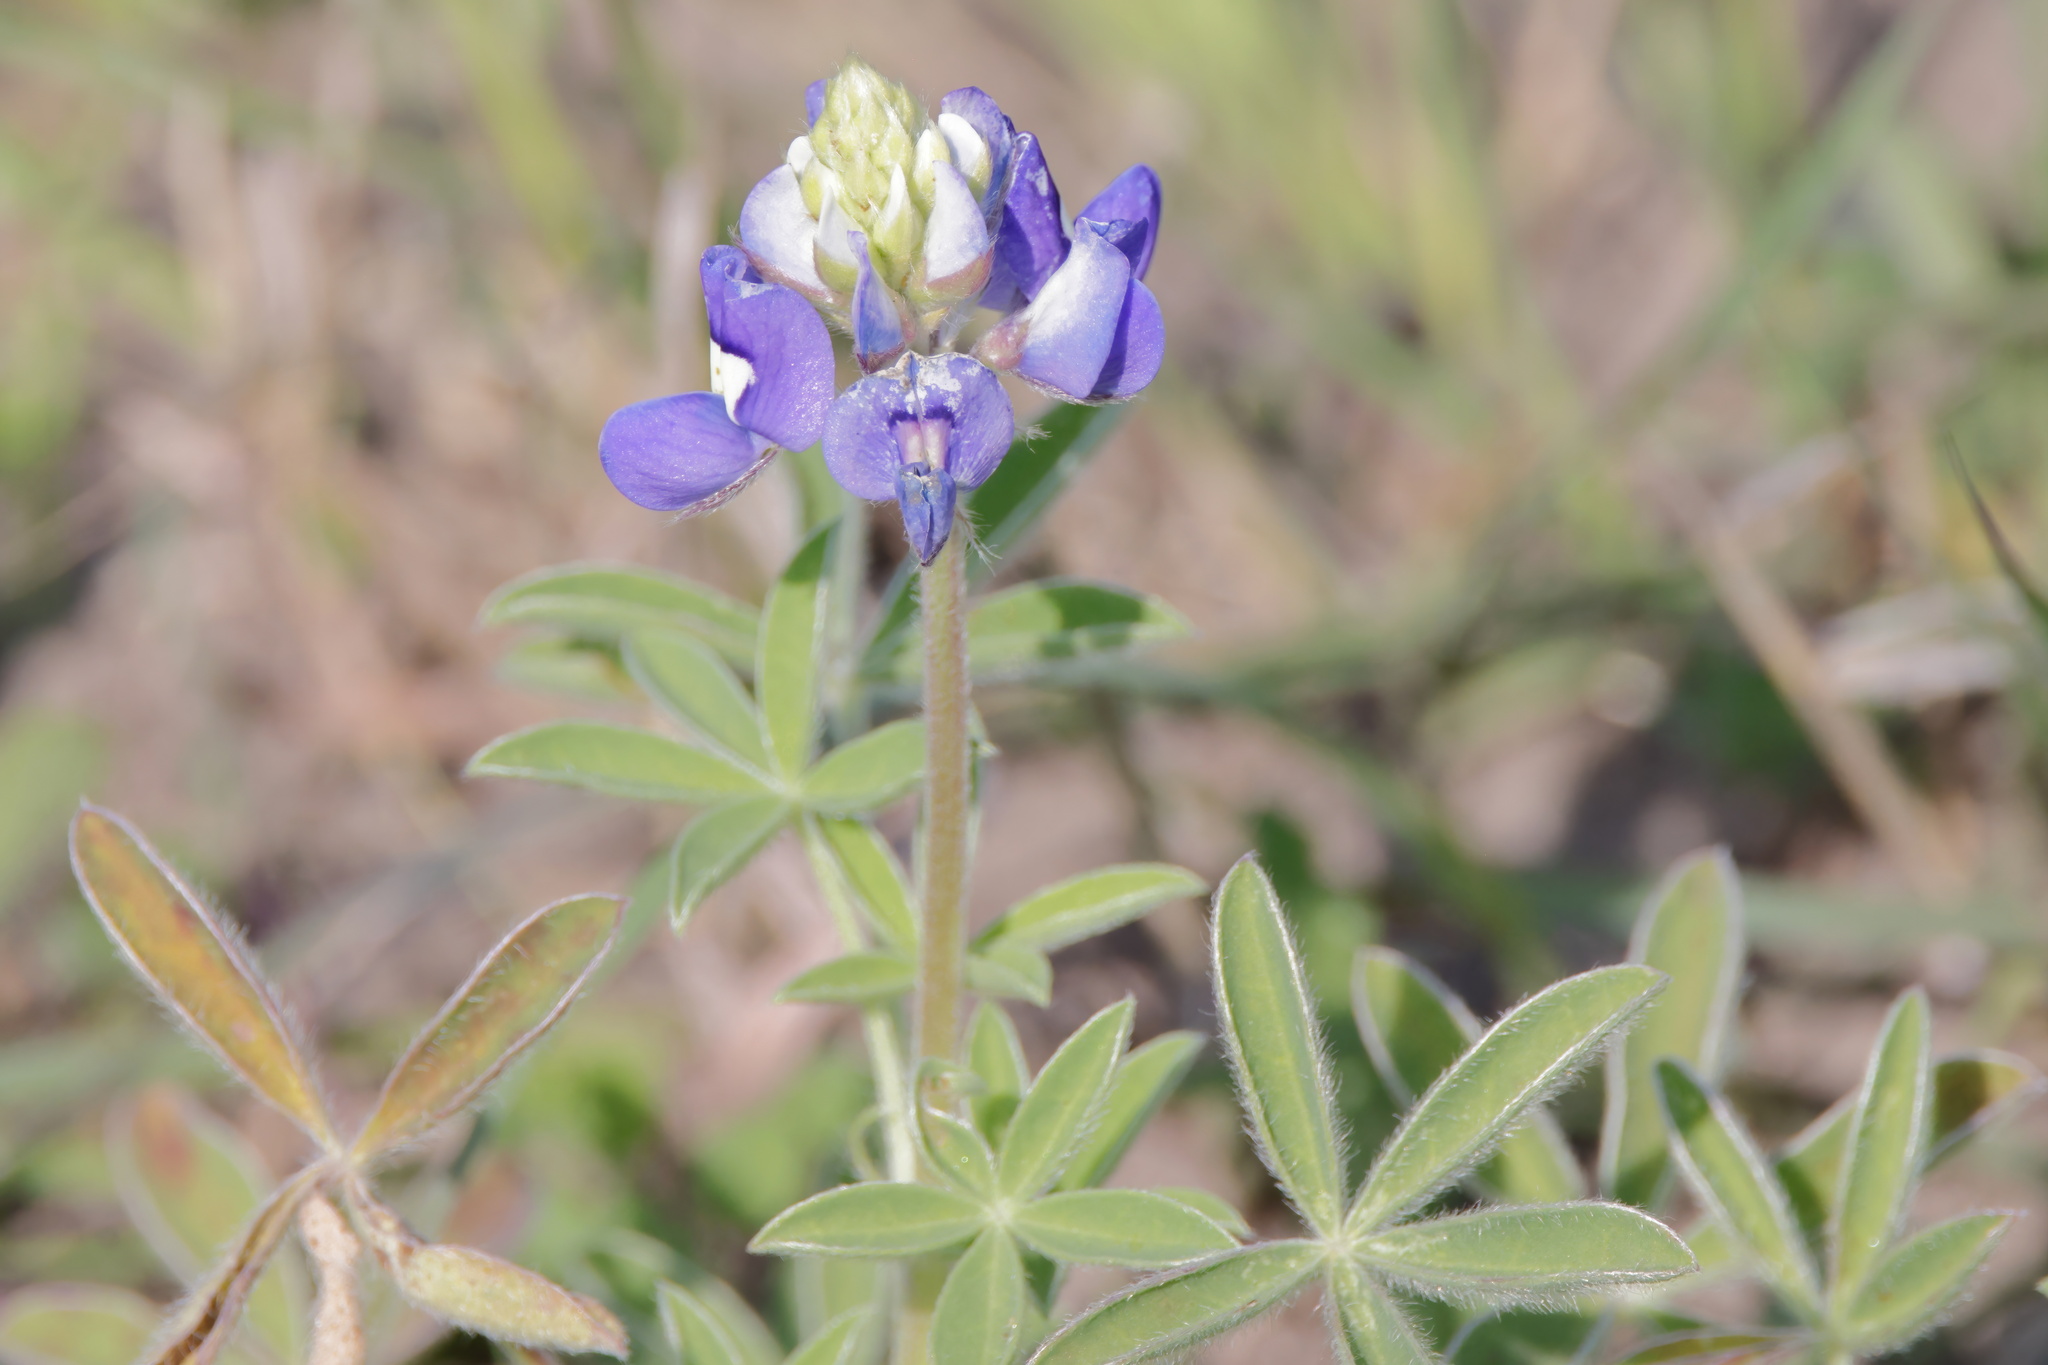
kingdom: Plantae
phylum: Tracheophyta
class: Magnoliopsida
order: Fabales
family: Fabaceae
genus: Lupinus
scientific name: Lupinus texensis
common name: Texas bluebonnet
